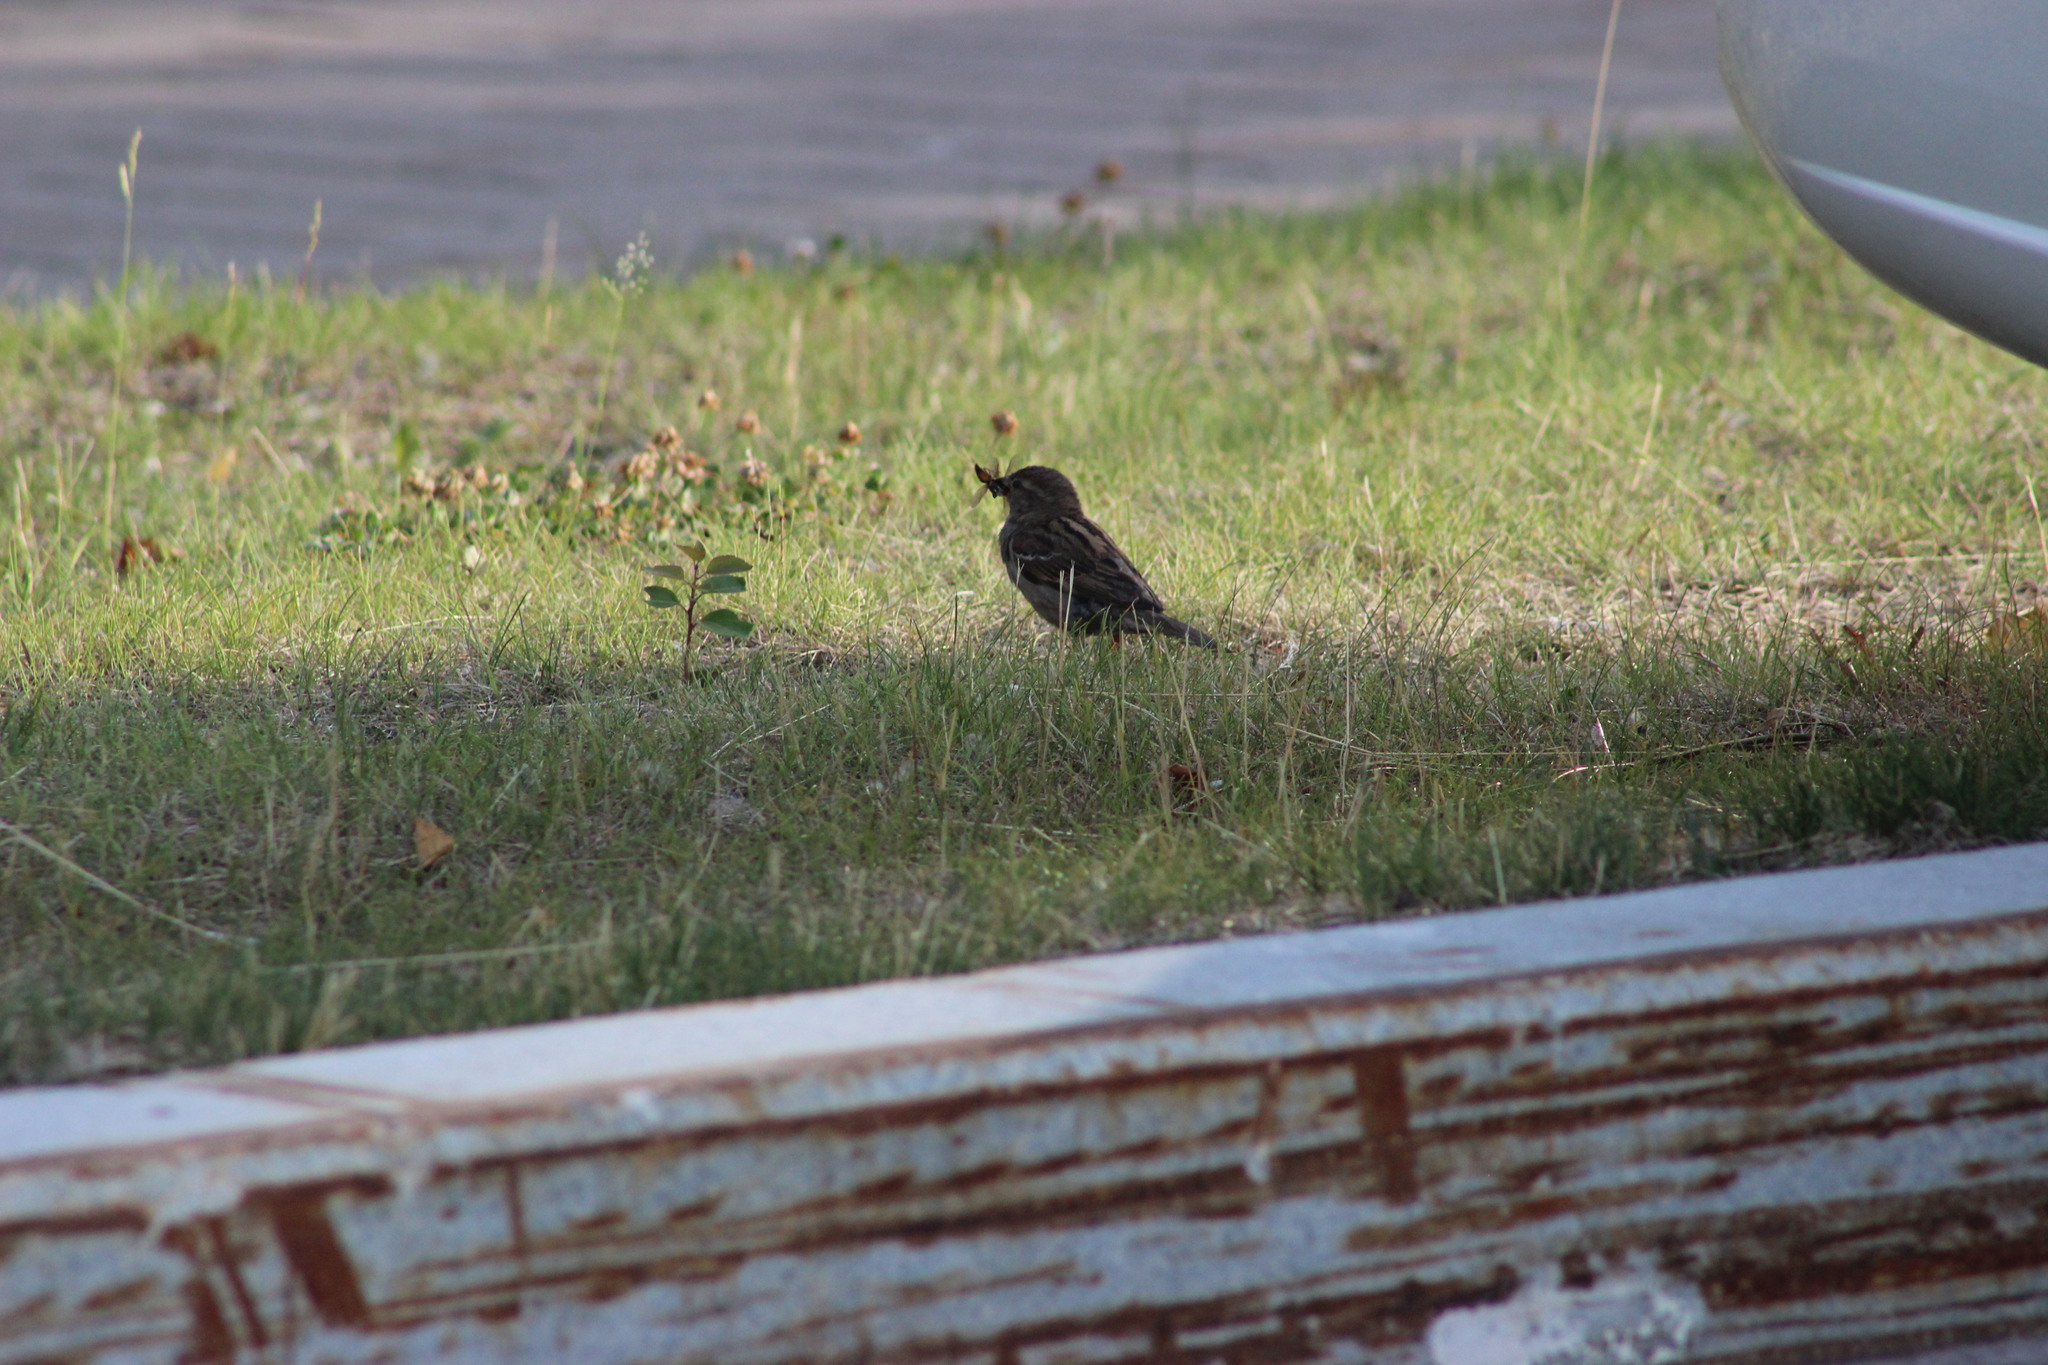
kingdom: Animalia
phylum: Chordata
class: Aves
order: Passeriformes
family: Passeridae
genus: Passer
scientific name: Passer domesticus
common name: House sparrow
